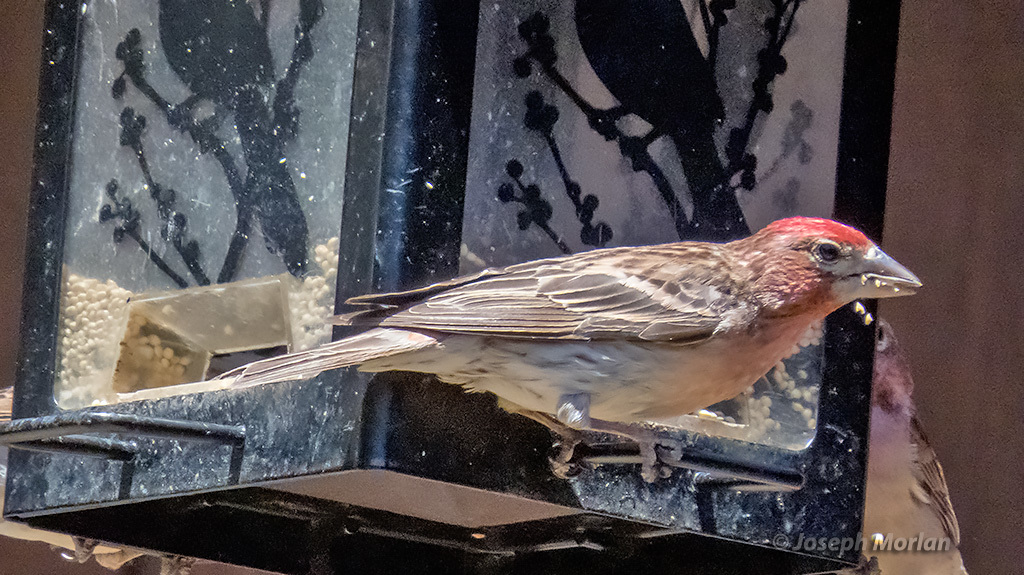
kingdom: Animalia
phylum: Chordata
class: Aves
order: Passeriformes
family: Fringillidae
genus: Haemorhous
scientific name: Haemorhous cassinii
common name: Cassin's finch
